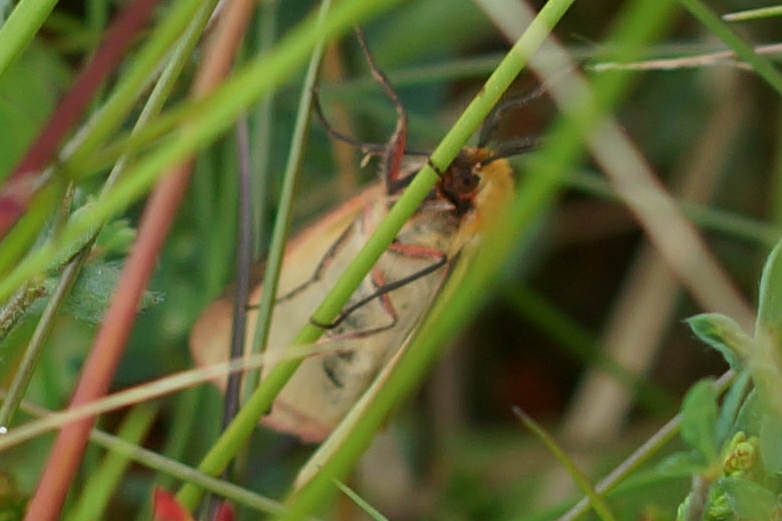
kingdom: Animalia
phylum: Arthropoda
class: Insecta
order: Lepidoptera
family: Erebidae
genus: Diacrisia
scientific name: Diacrisia sannio
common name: Clouded buff
